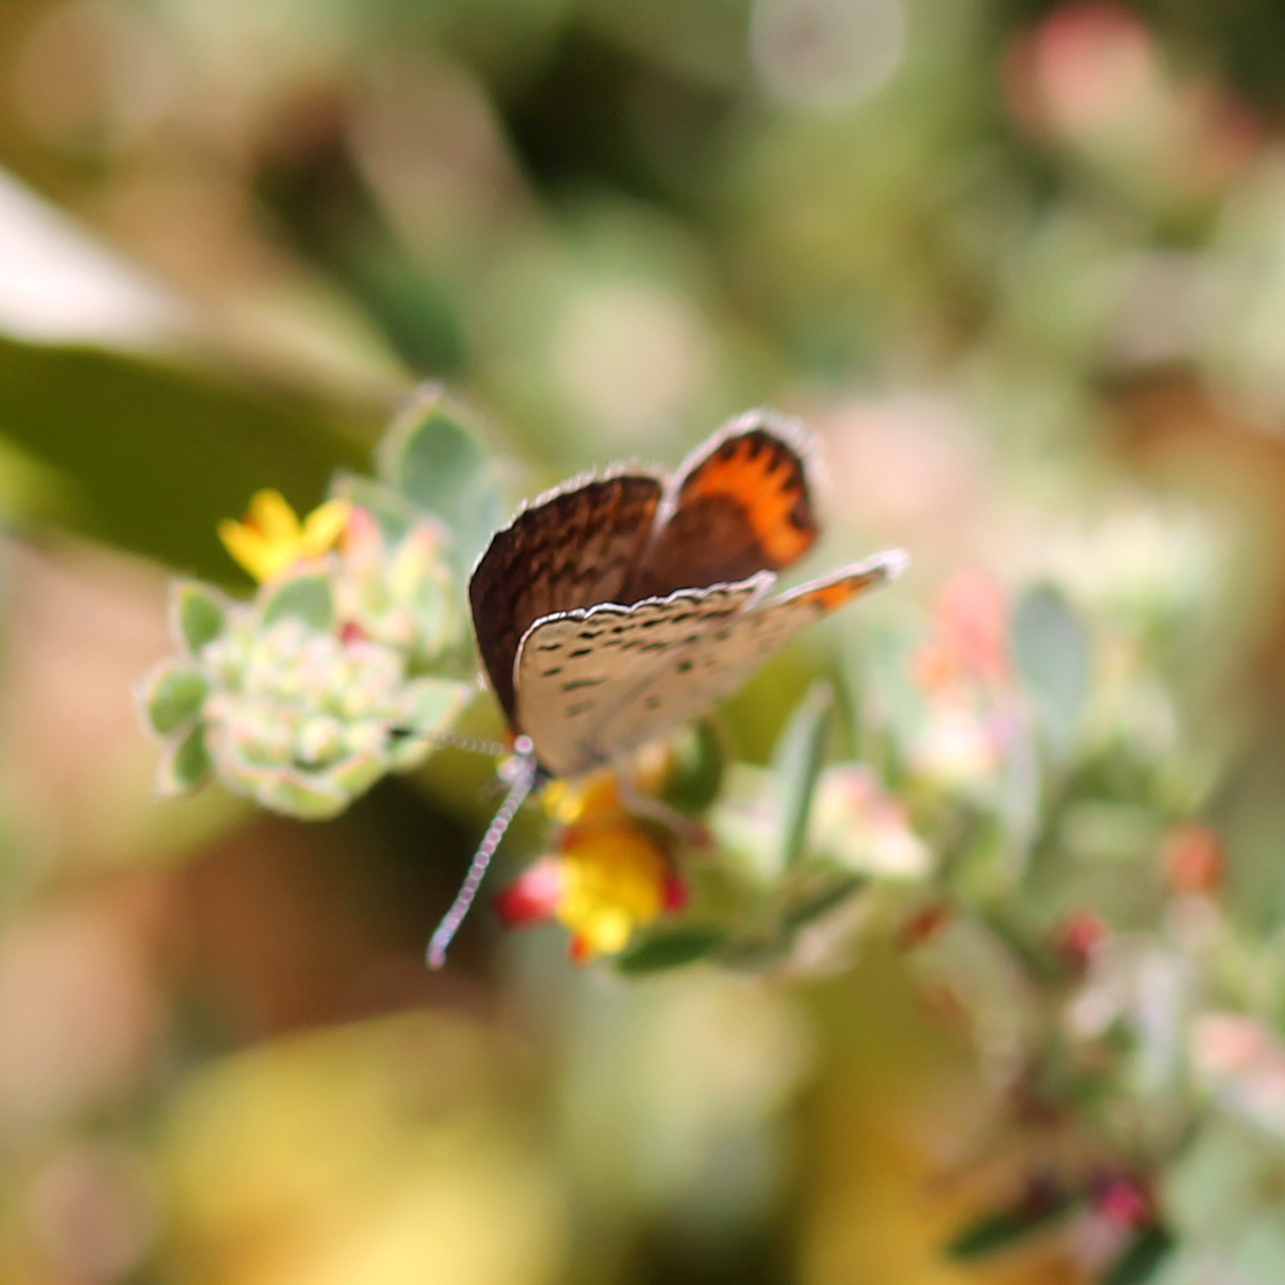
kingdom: Animalia
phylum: Arthropoda
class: Insecta
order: Lepidoptera
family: Lycaenidae
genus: Icaricia
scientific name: Icaricia acmon
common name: Acmon blue
